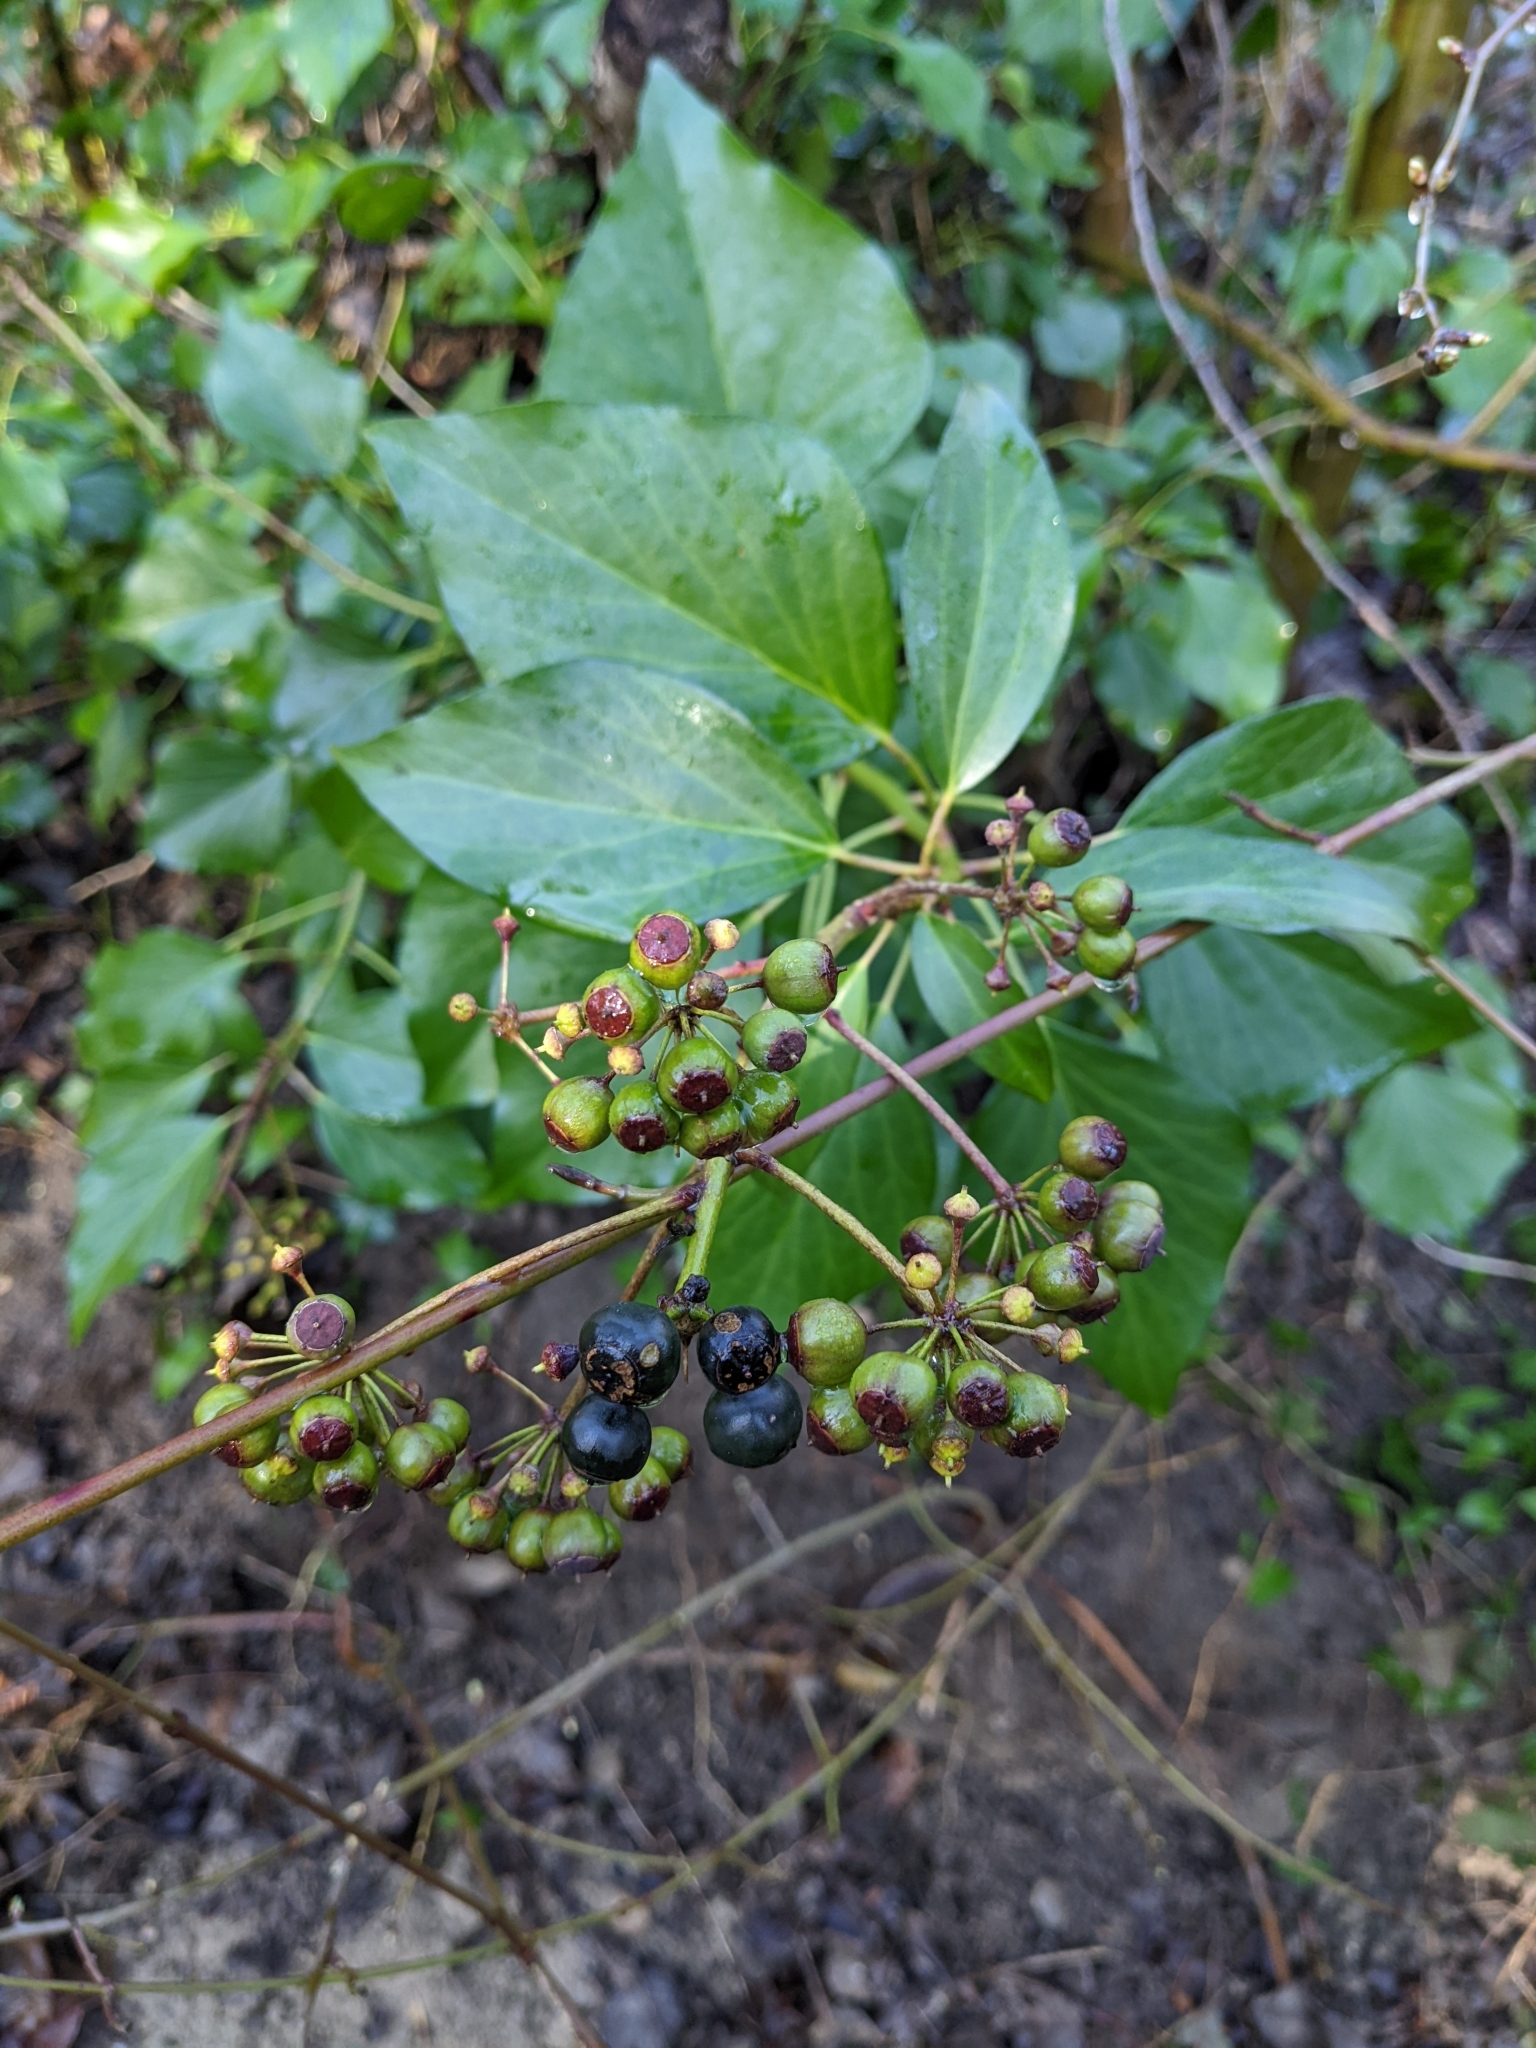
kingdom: Plantae
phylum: Tracheophyta
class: Magnoliopsida
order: Apiales
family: Araliaceae
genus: Hedera
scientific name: Hedera helix
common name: Ivy
